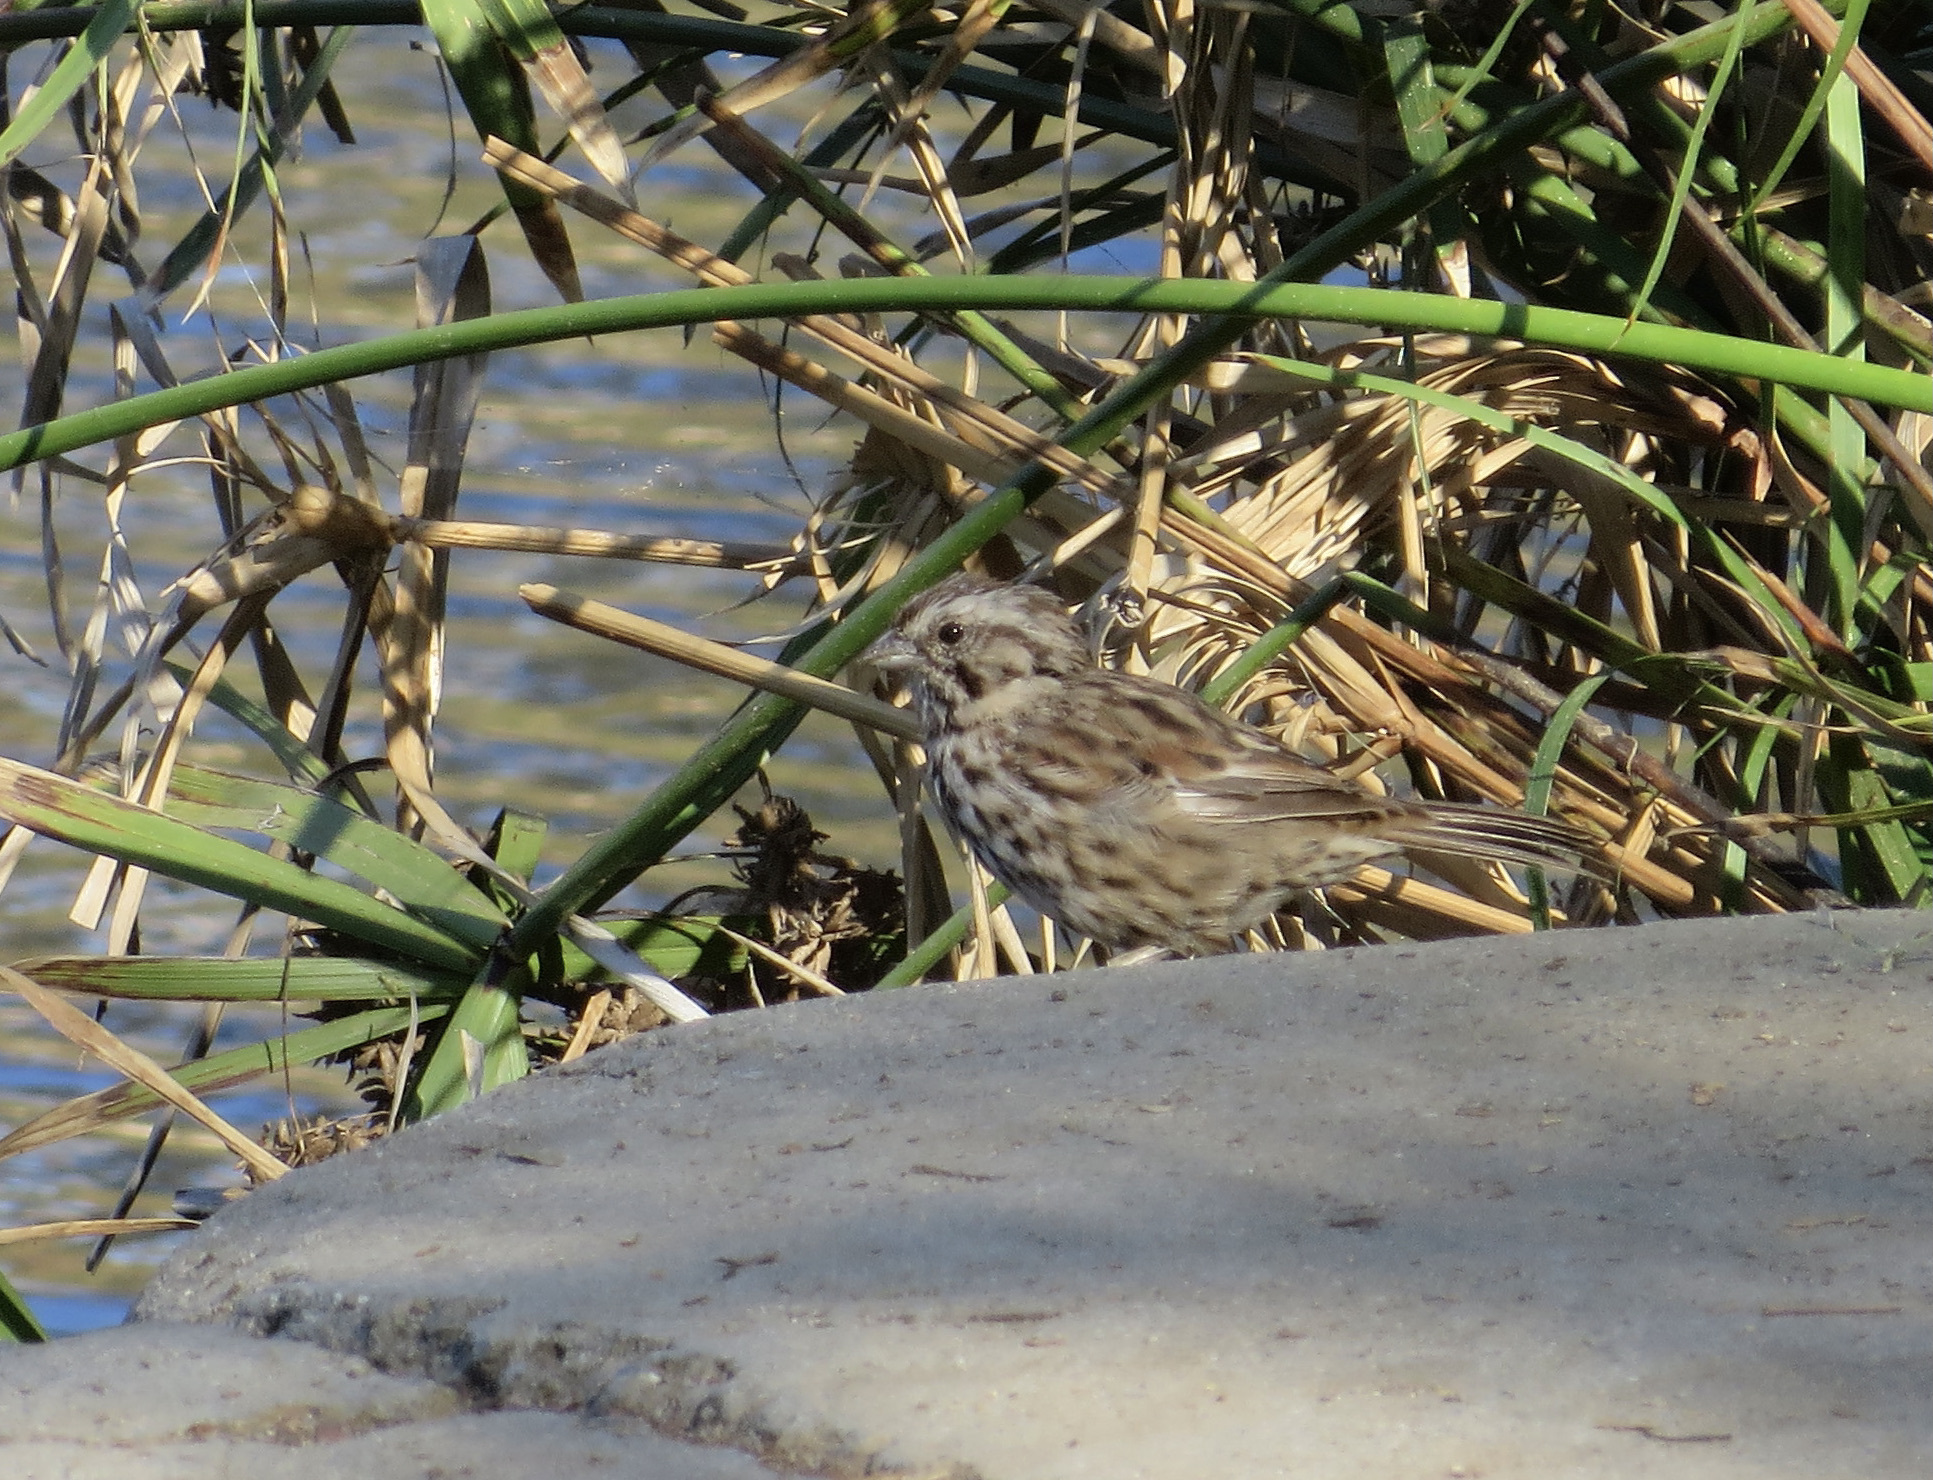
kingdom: Animalia
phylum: Chordata
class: Aves
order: Passeriformes
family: Passerellidae
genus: Melospiza
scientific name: Melospiza melodia
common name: Song sparrow
